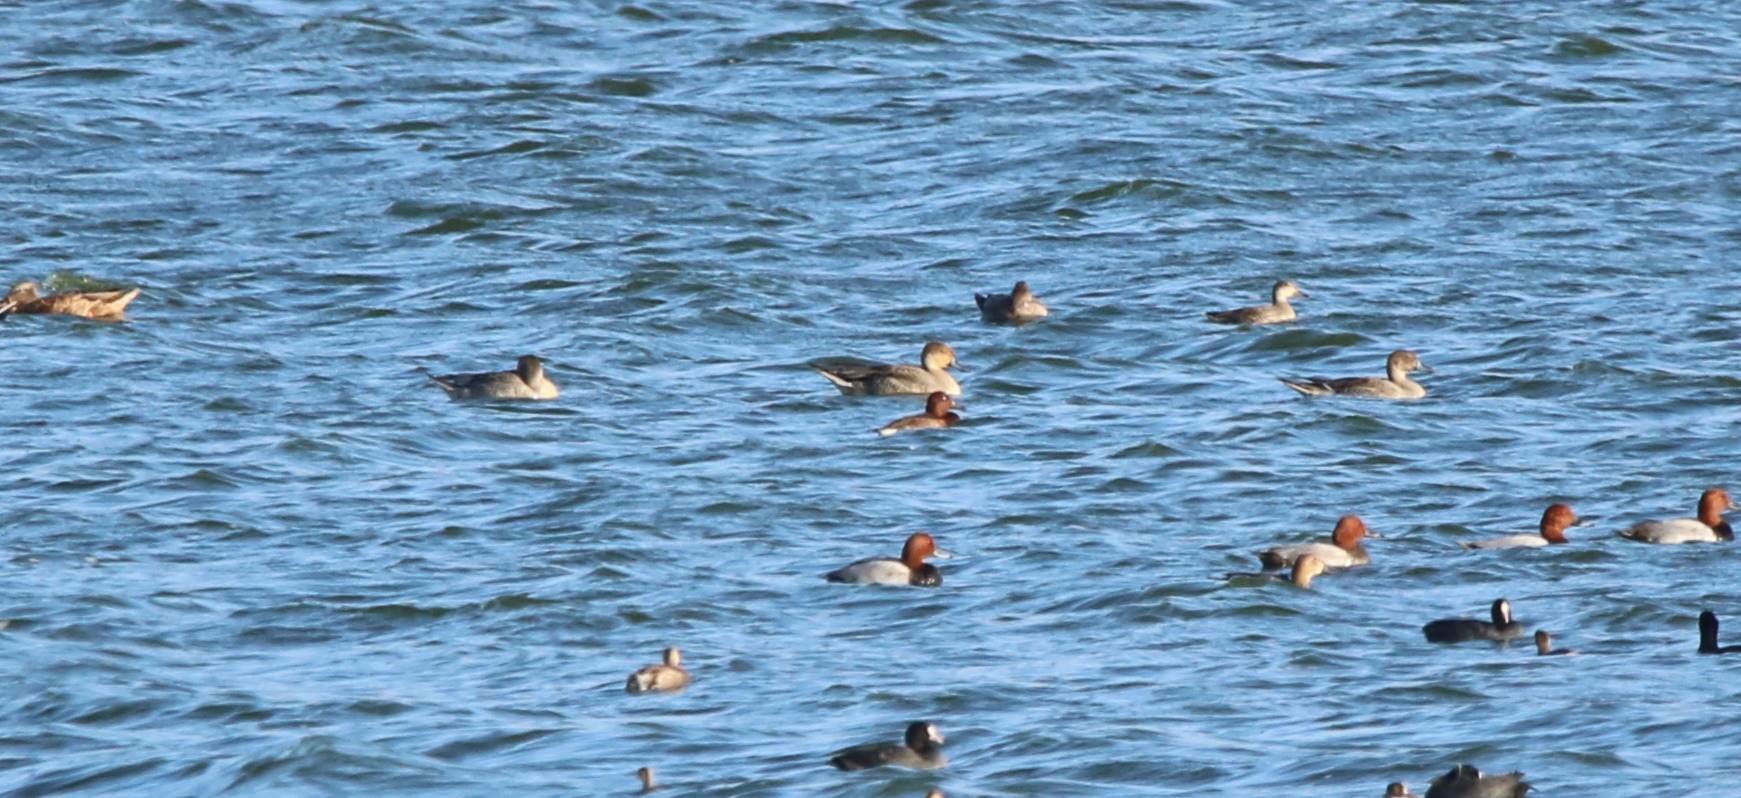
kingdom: Animalia
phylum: Chordata
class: Aves
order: Anseriformes
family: Anatidae
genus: Anas
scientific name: Anas acuta
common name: Northern pintail
